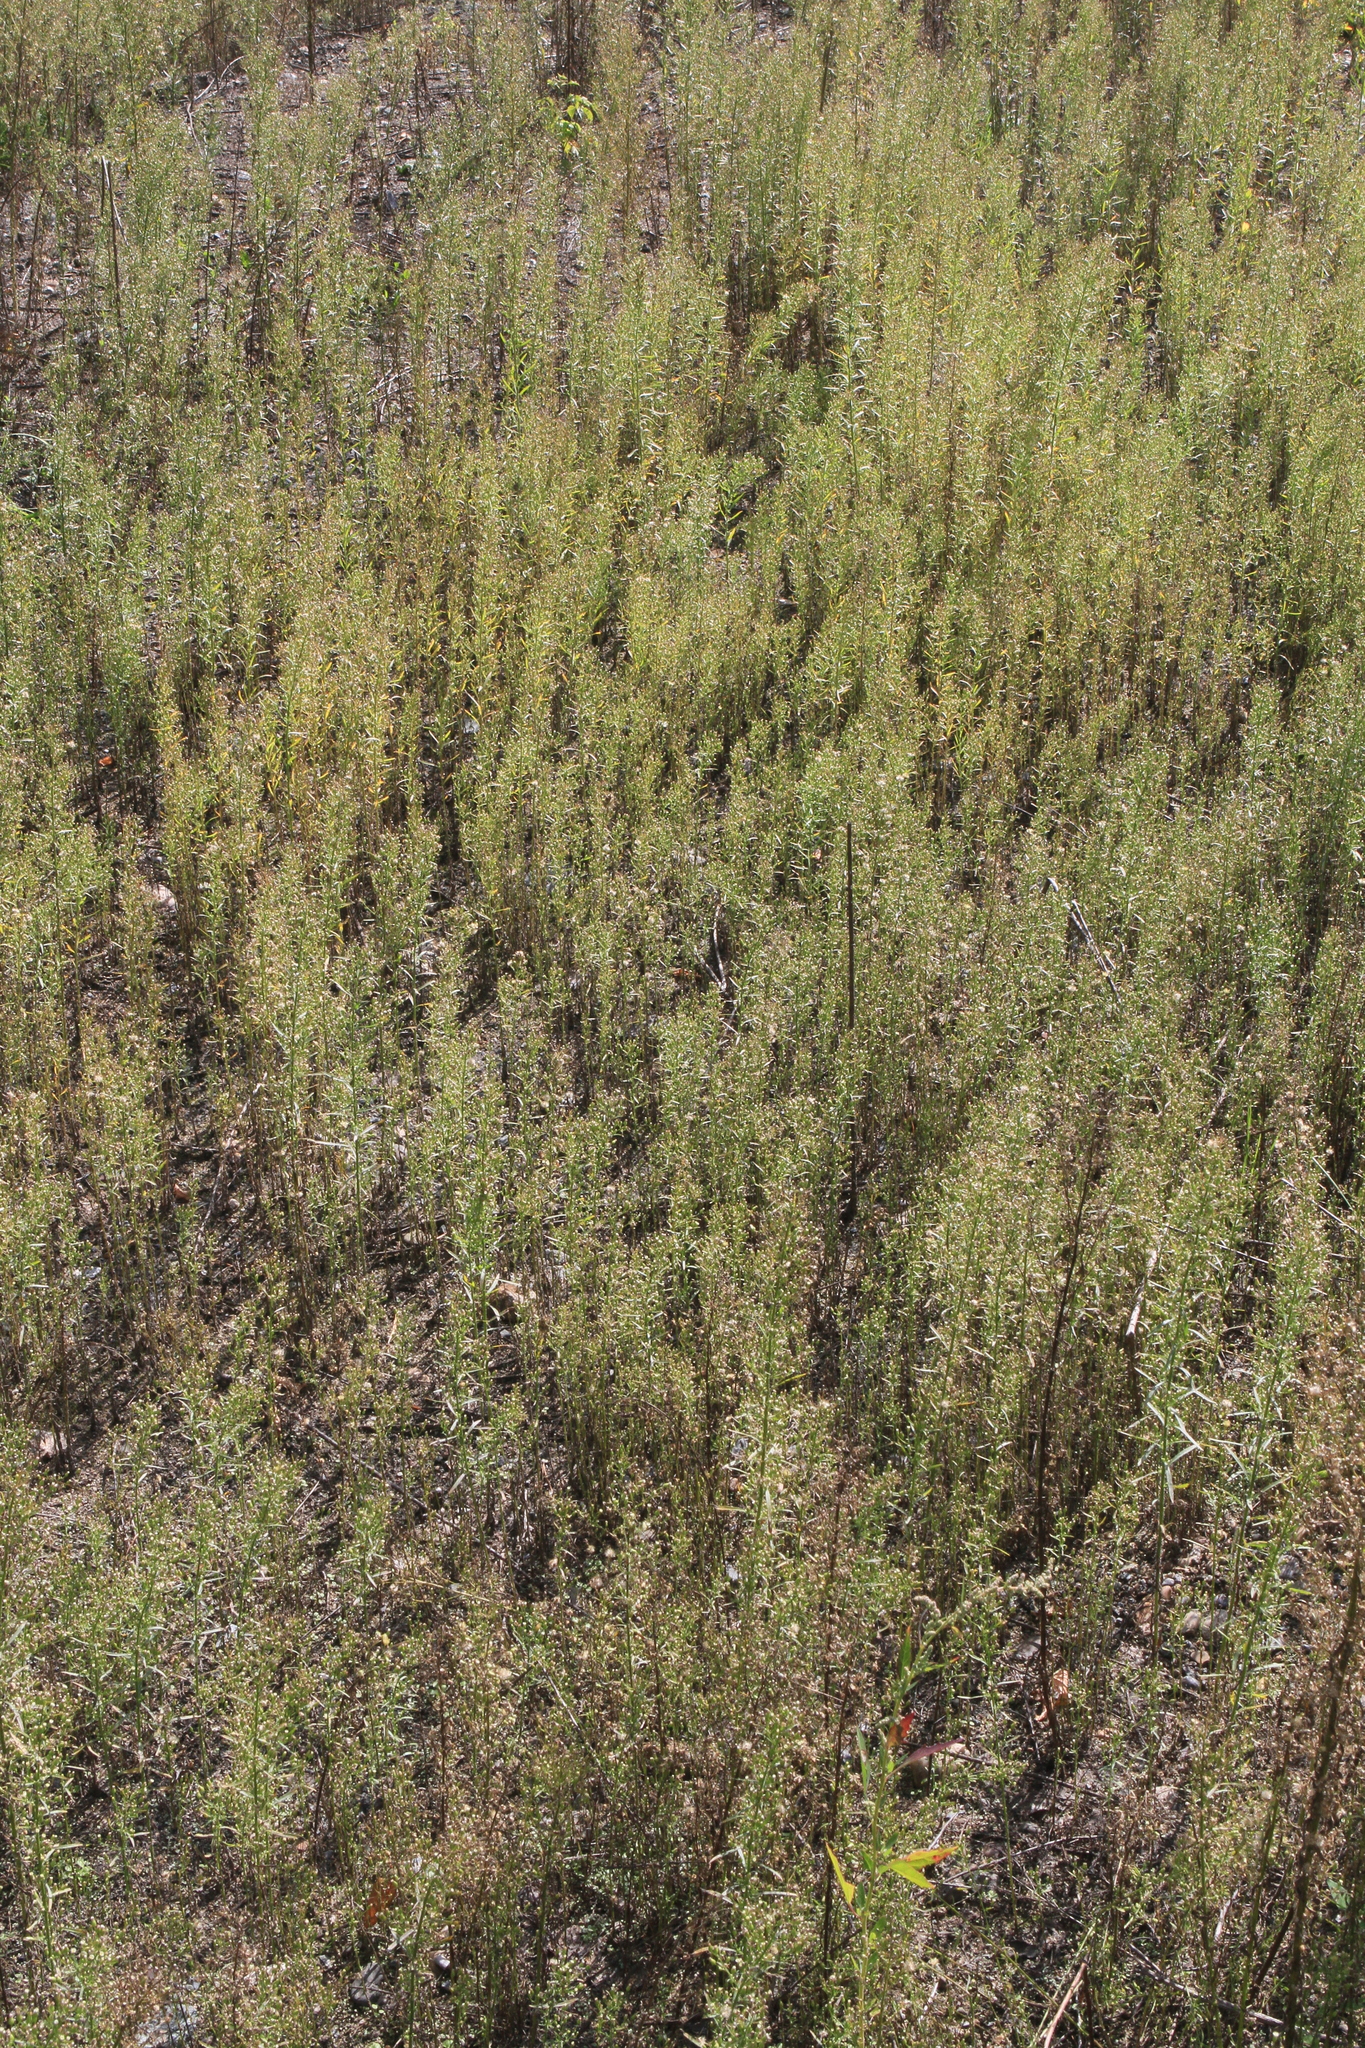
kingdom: Plantae
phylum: Tracheophyta
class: Magnoliopsida
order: Asterales
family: Asteraceae
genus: Erigeron
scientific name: Erigeron canadensis
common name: Canadian fleabane
